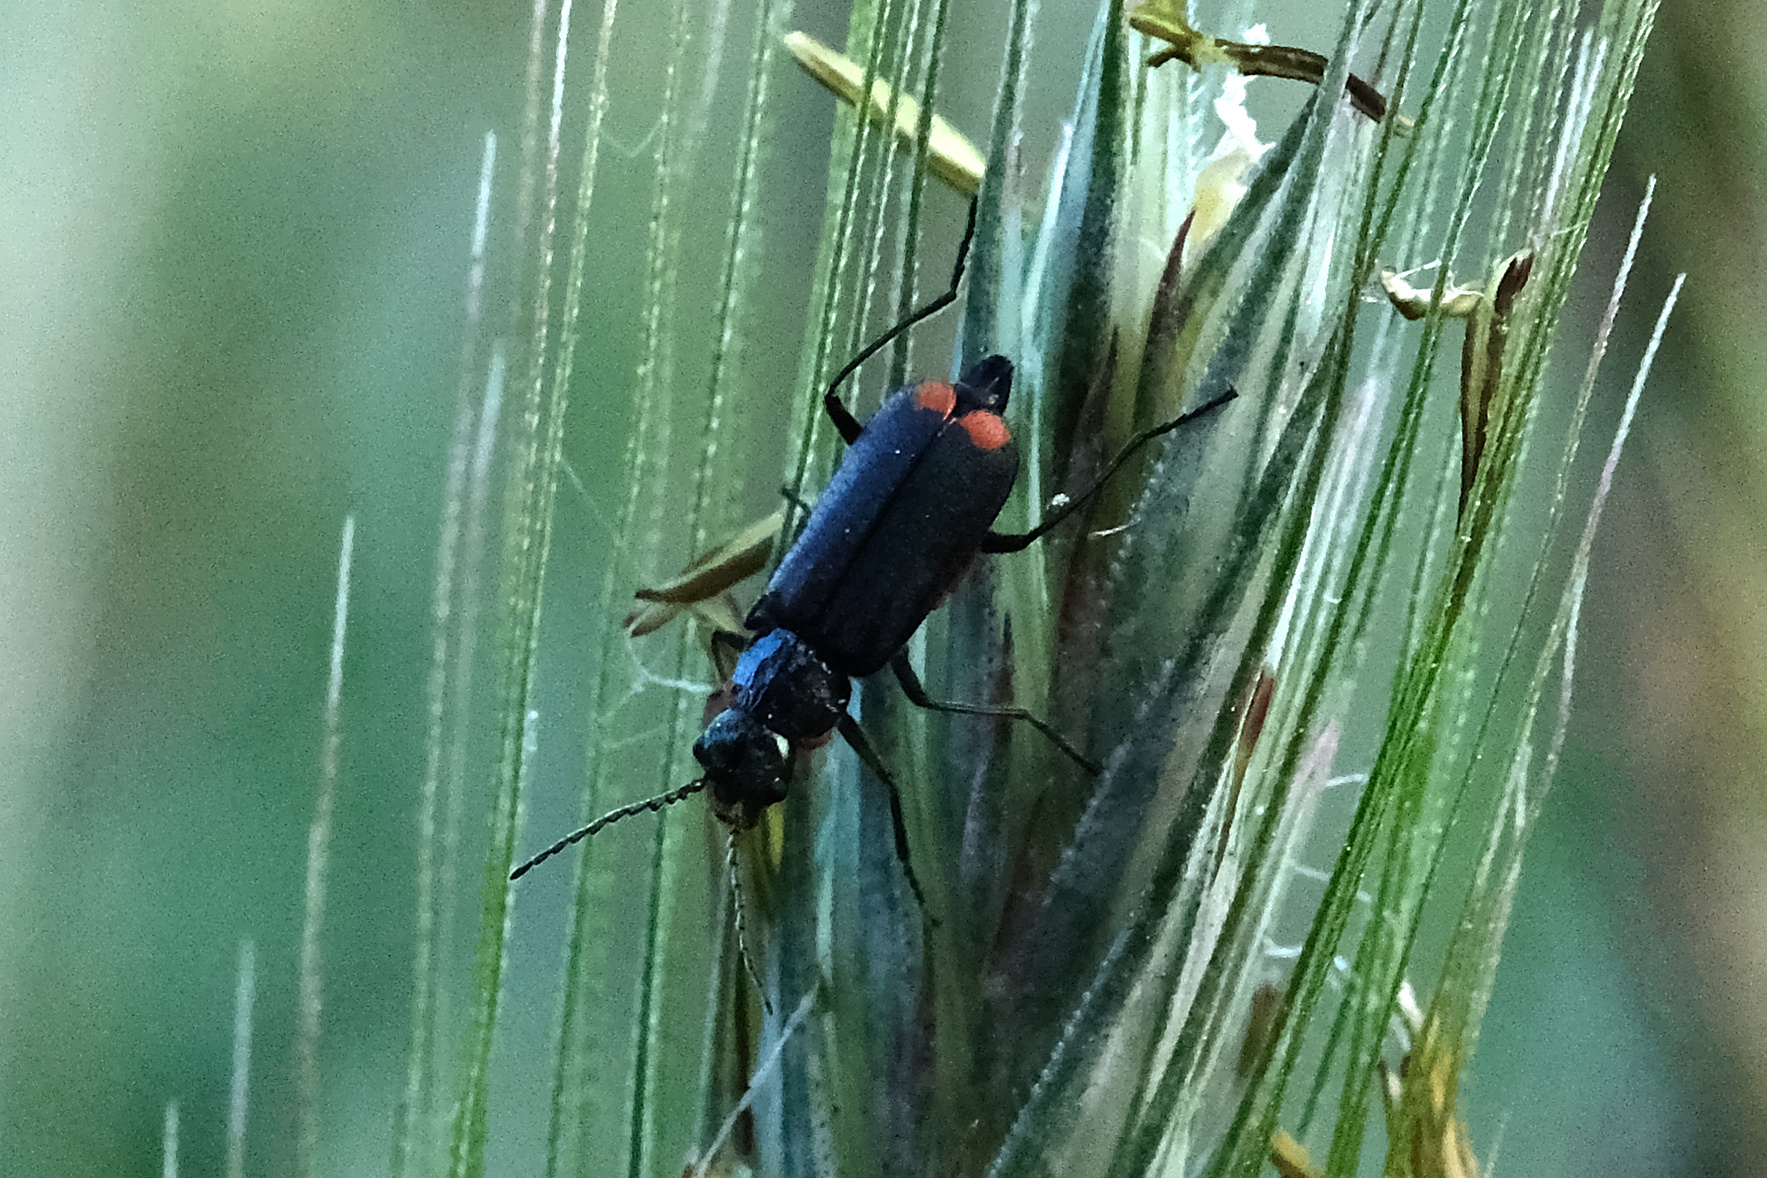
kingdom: Animalia
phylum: Arthropoda
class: Insecta
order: Coleoptera
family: Melyridae
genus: Malachius
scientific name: Malachius bipustulatus
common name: Malachite beetle
